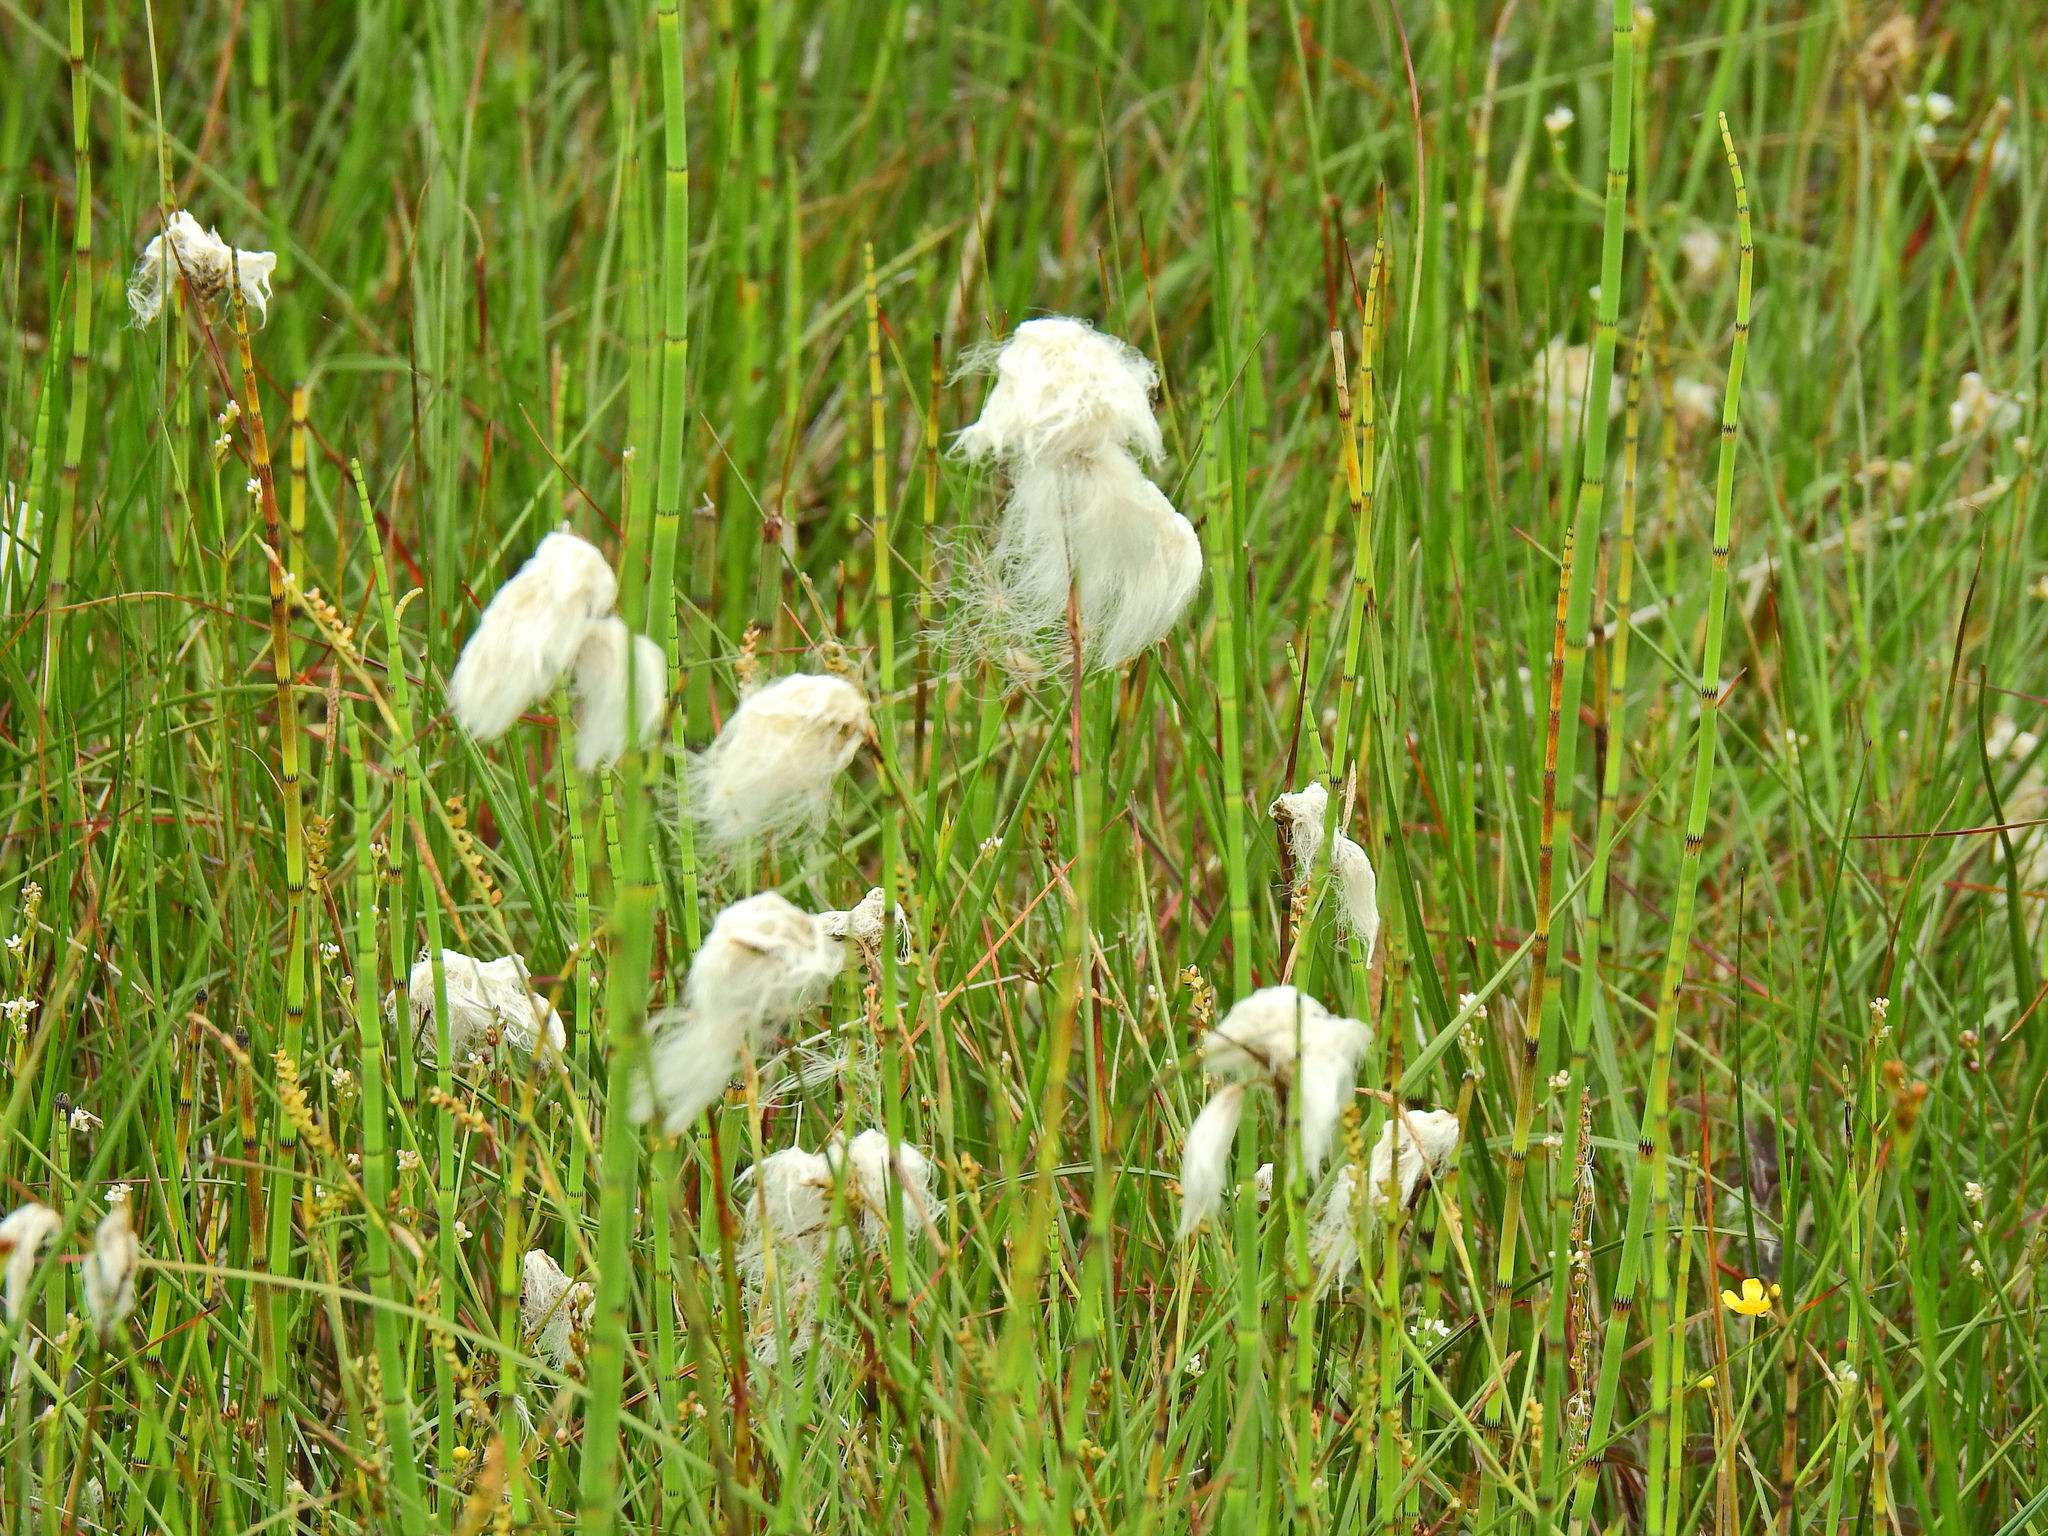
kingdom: Plantae
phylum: Tracheophyta
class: Liliopsida
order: Poales
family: Cyperaceae
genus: Eriophorum
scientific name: Eriophorum angustifolium
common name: Common cottongrass
